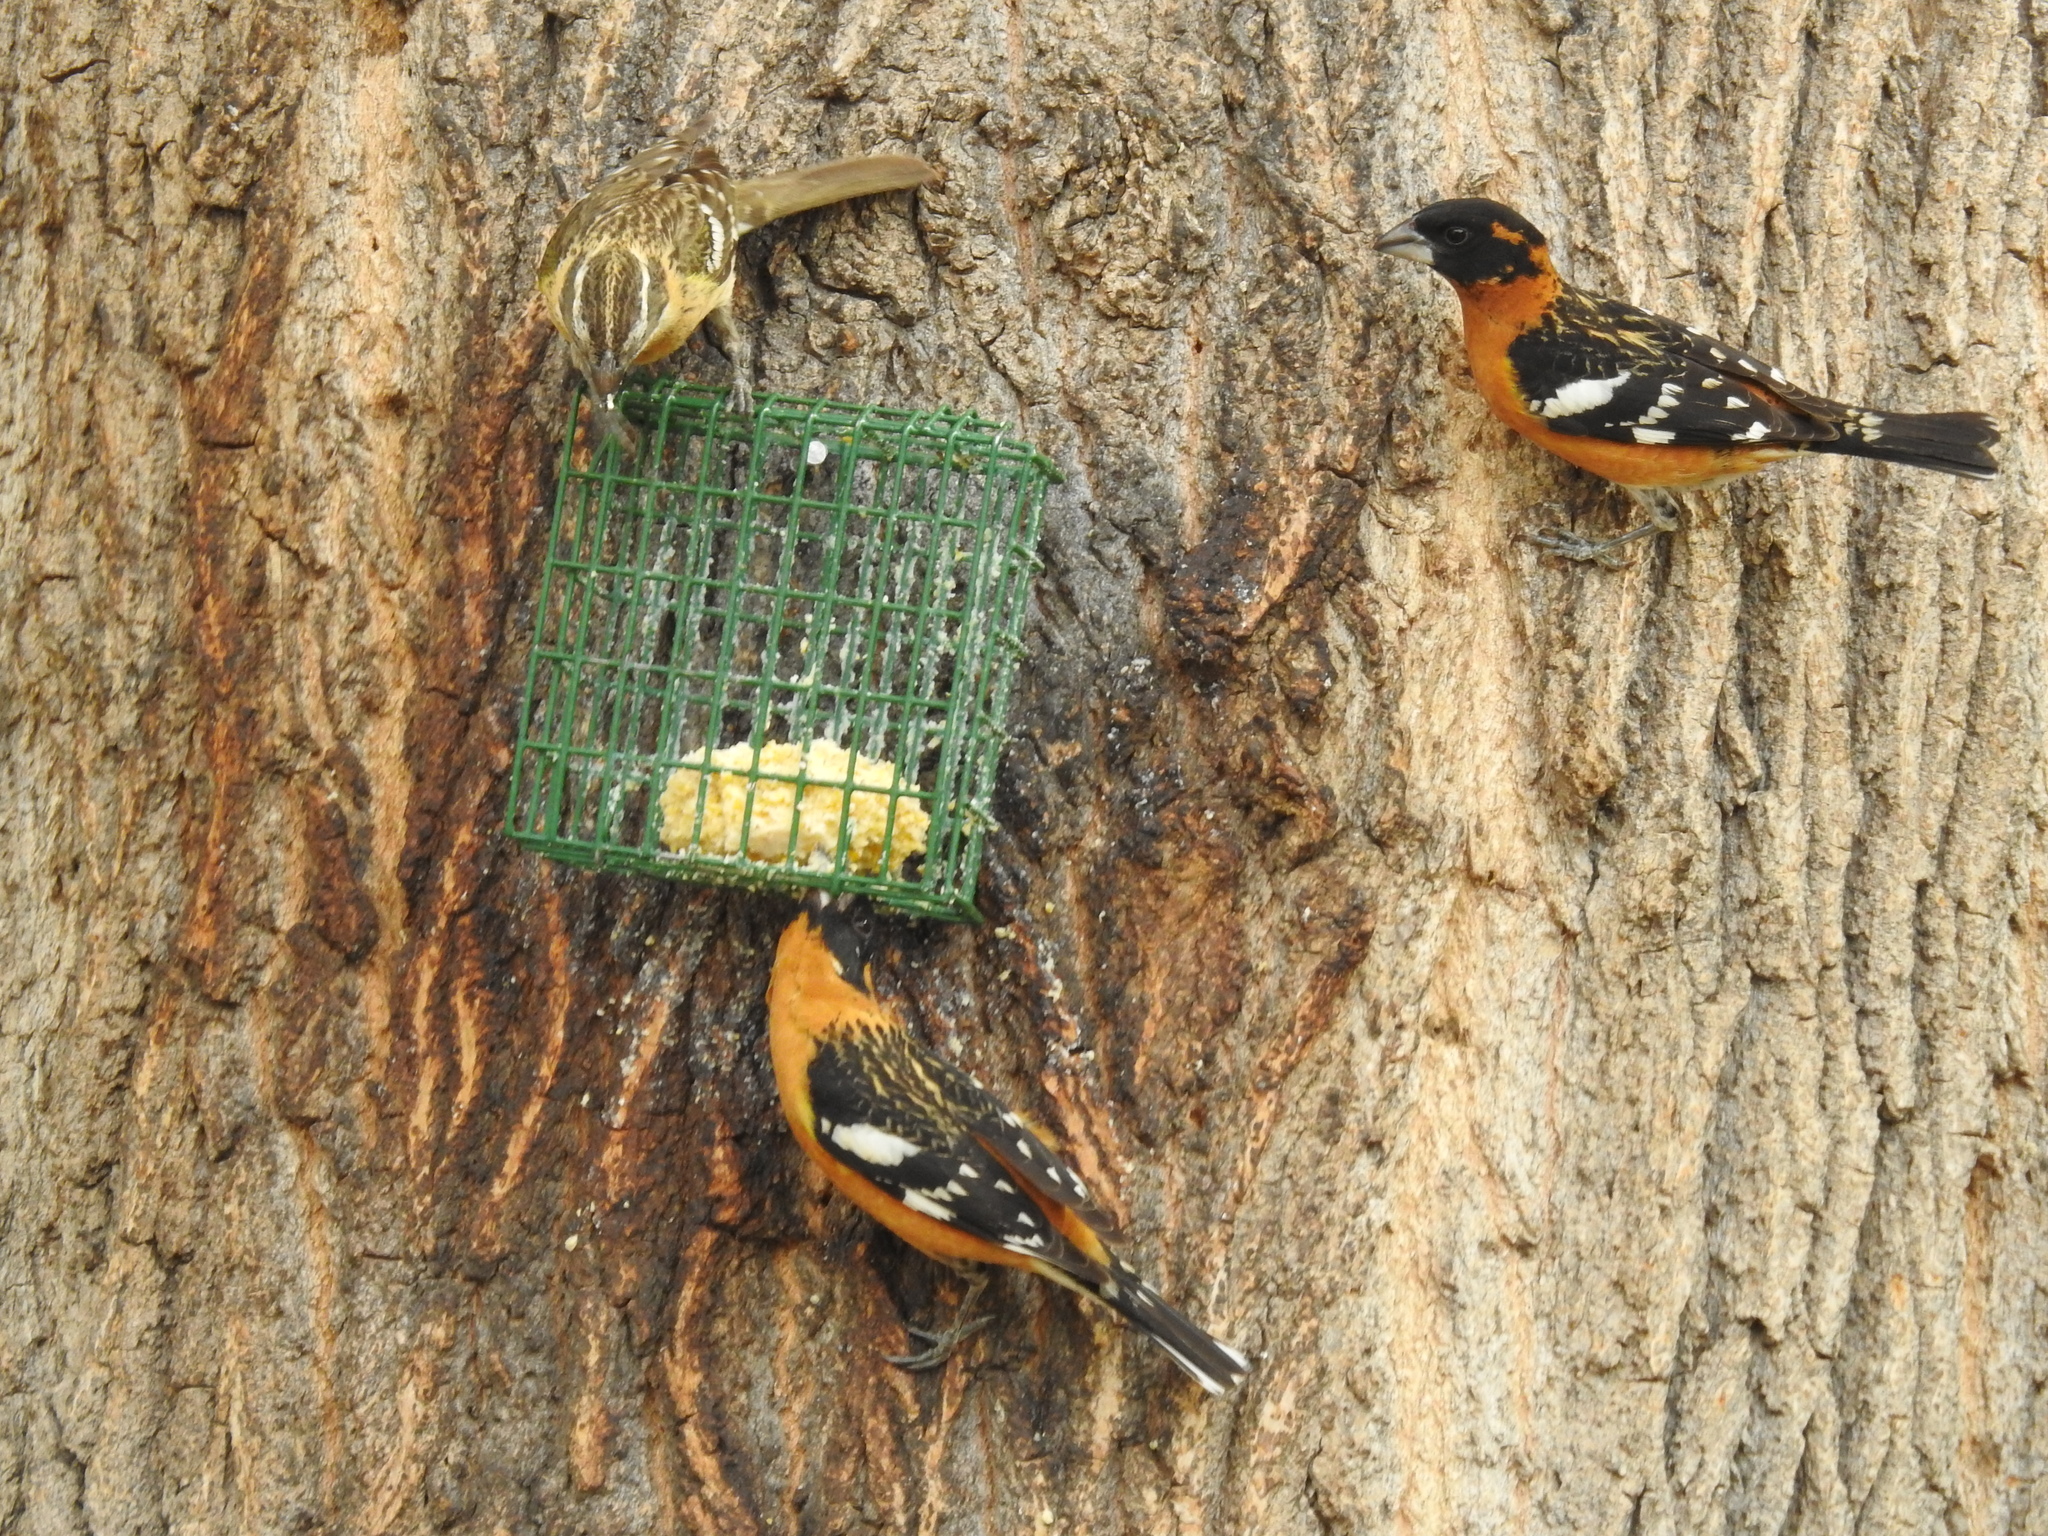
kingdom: Animalia
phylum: Chordata
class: Aves
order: Passeriformes
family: Cardinalidae
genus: Pheucticus
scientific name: Pheucticus melanocephalus
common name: Black-headed grosbeak
